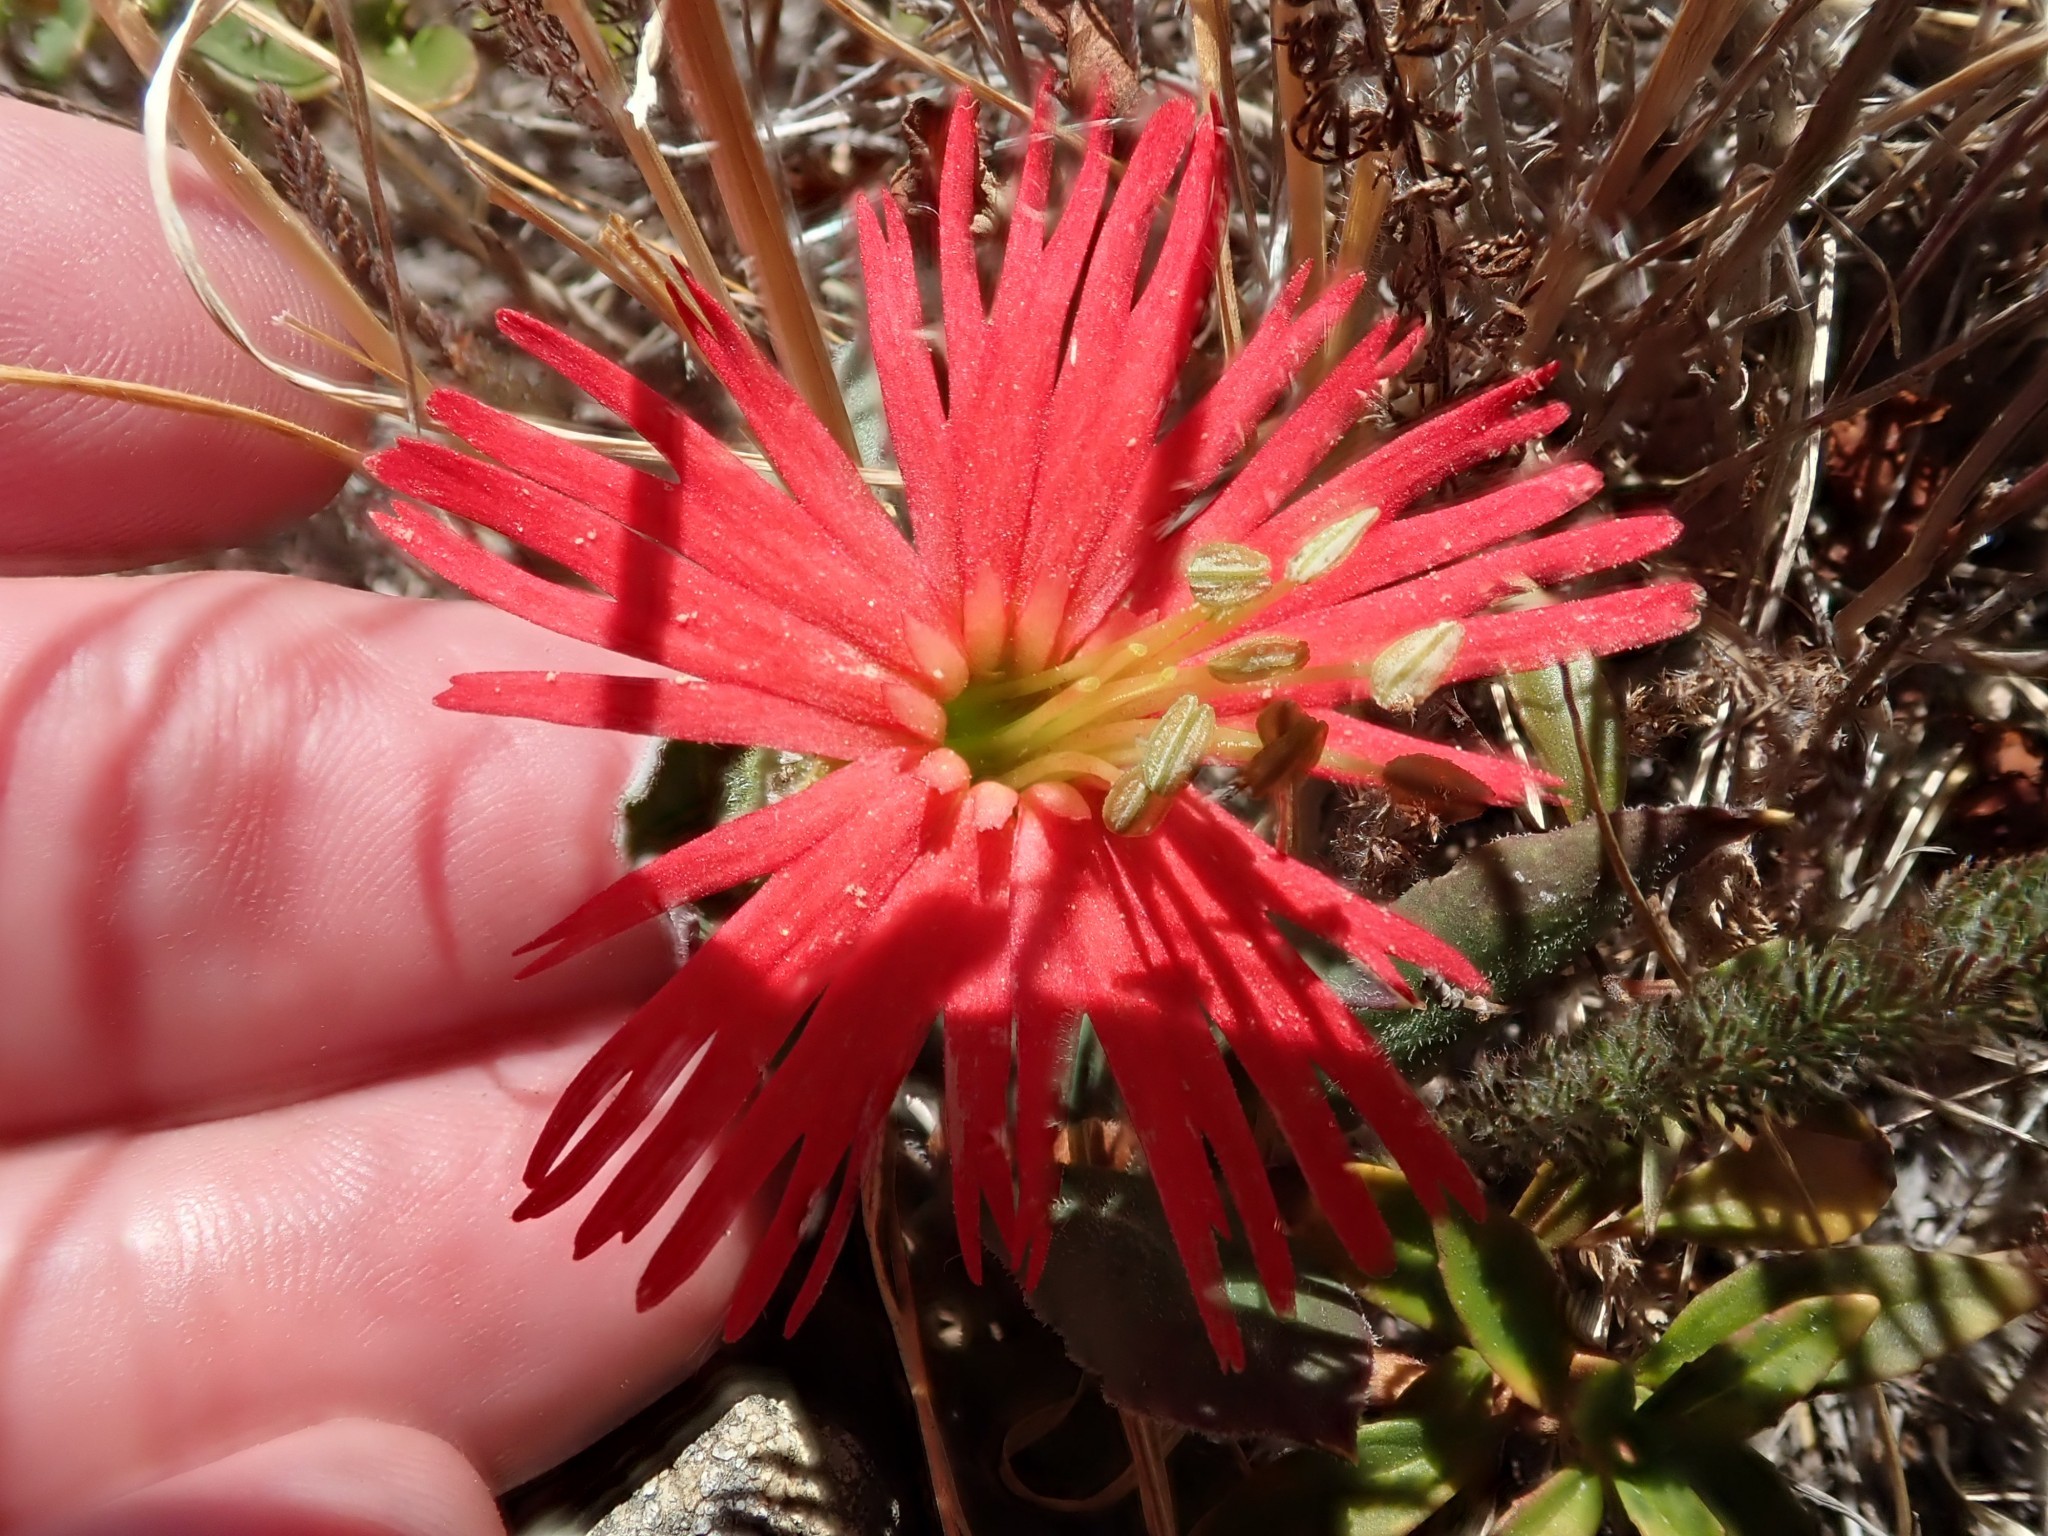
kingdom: Plantae
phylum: Tracheophyta
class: Magnoliopsida
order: Caryophyllales
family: Caryophyllaceae
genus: Silene
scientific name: Silene laciniata
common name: Indian-pink
